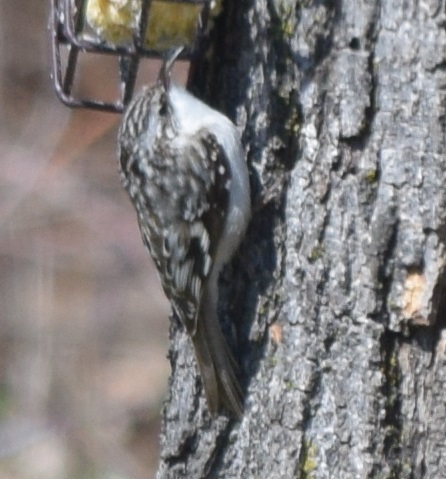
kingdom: Animalia
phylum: Chordata
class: Aves
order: Passeriformes
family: Certhiidae
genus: Certhia
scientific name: Certhia americana
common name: Brown creeper
